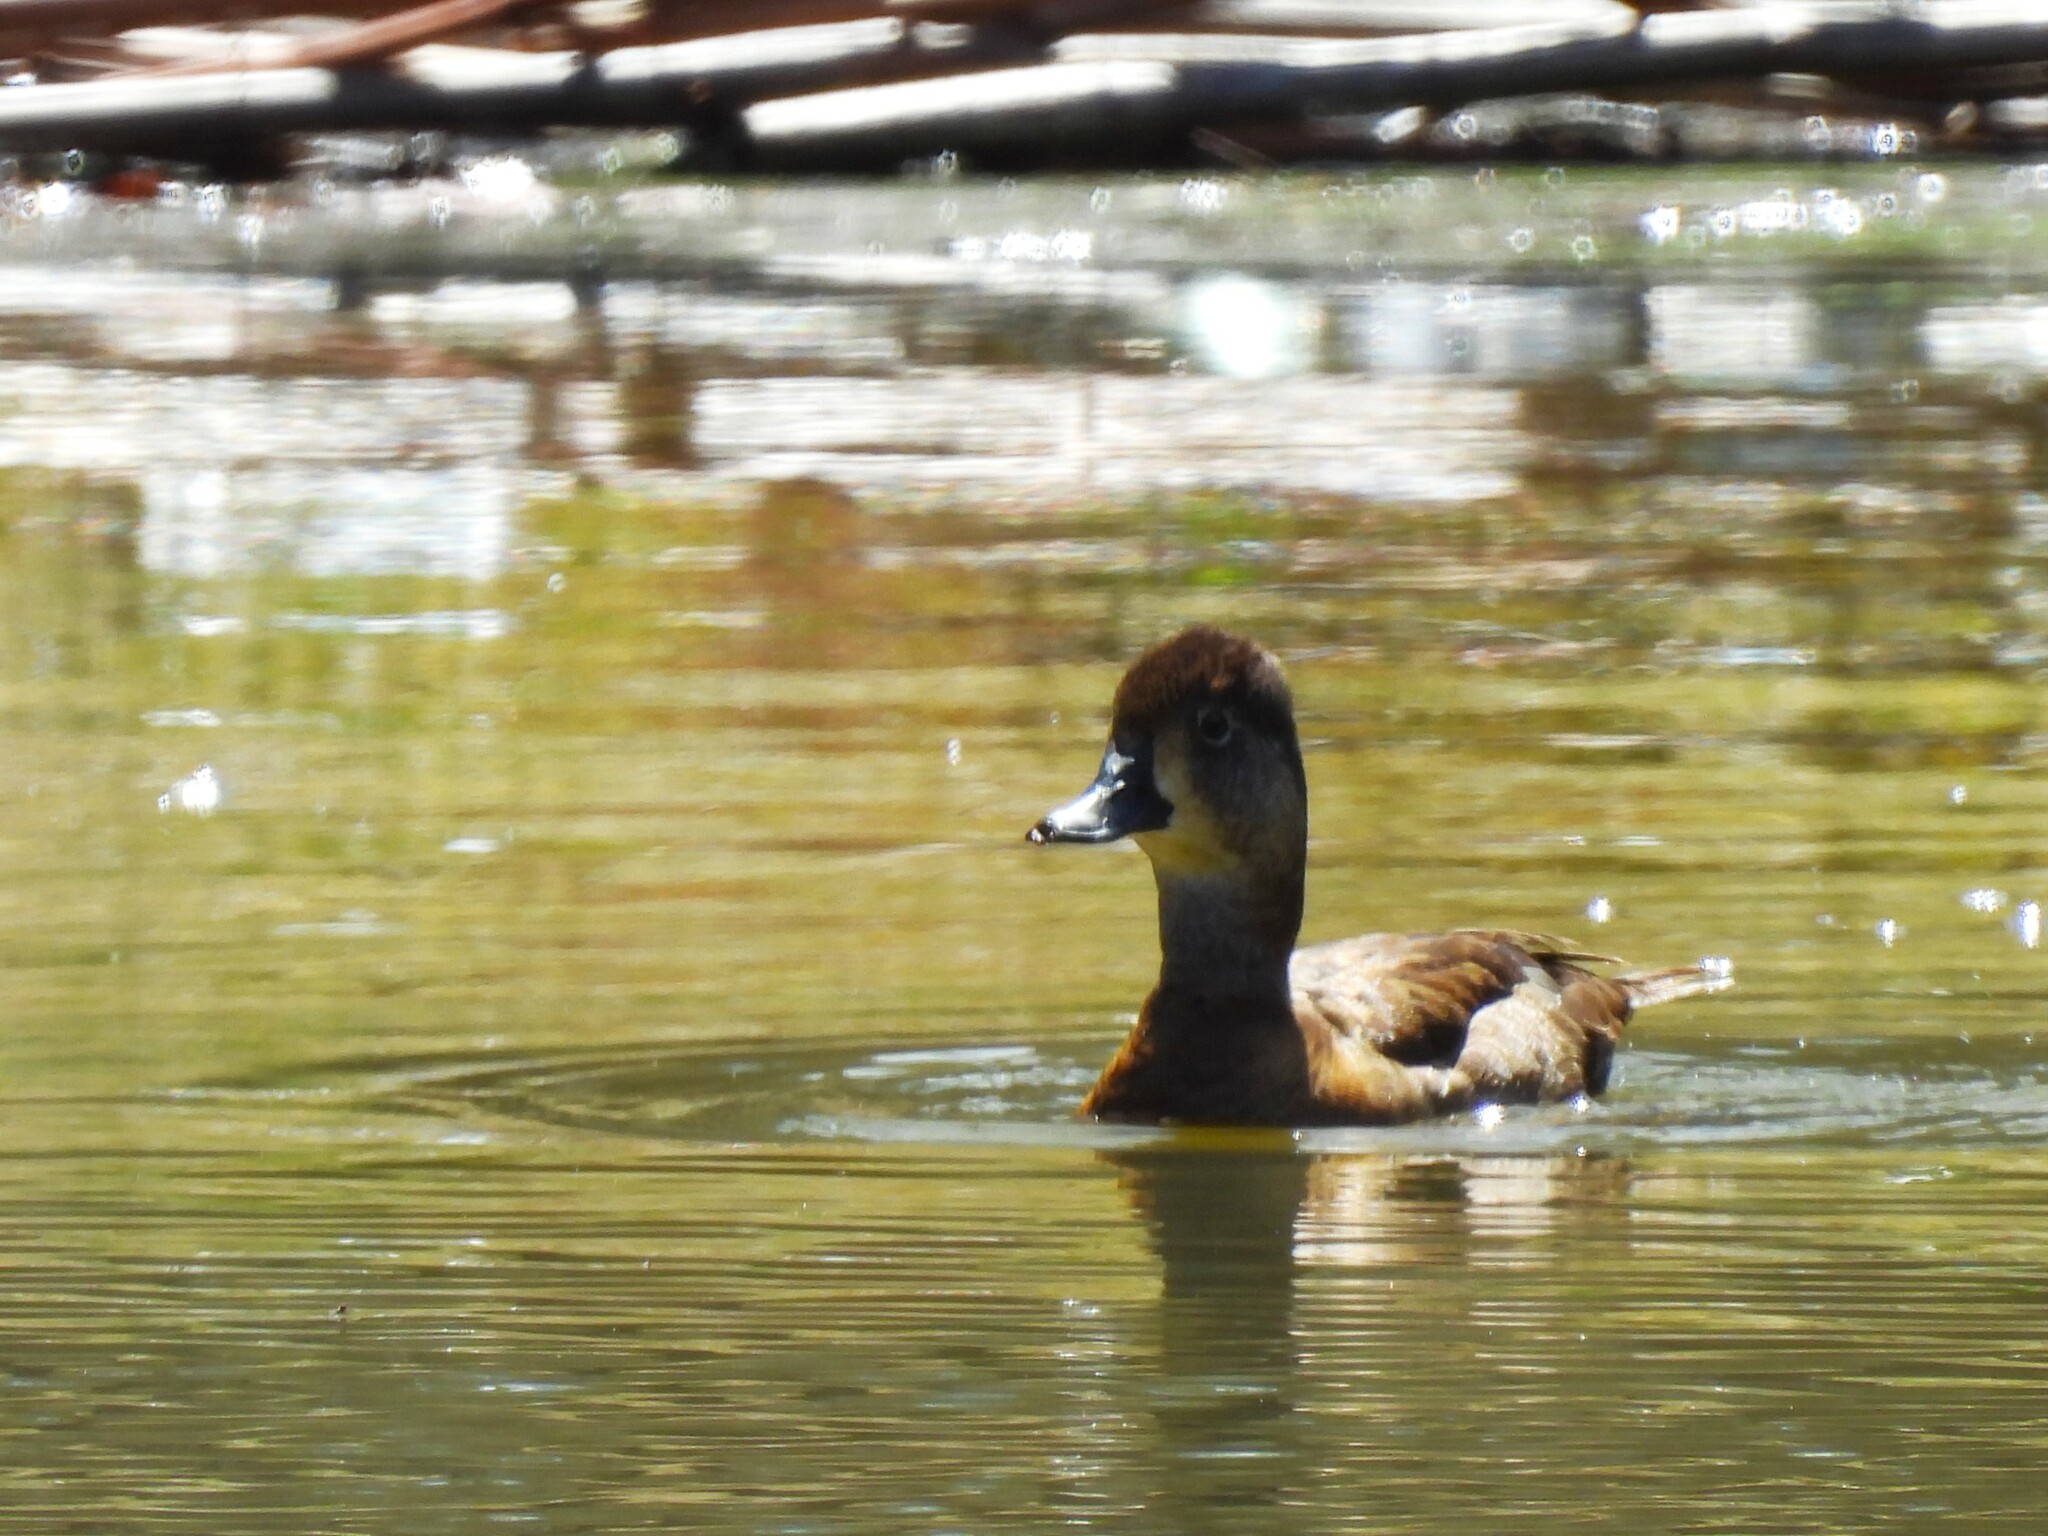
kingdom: Animalia
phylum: Chordata
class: Aves
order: Anseriformes
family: Anatidae
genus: Aythya
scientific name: Aythya collaris
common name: Ring-necked duck
